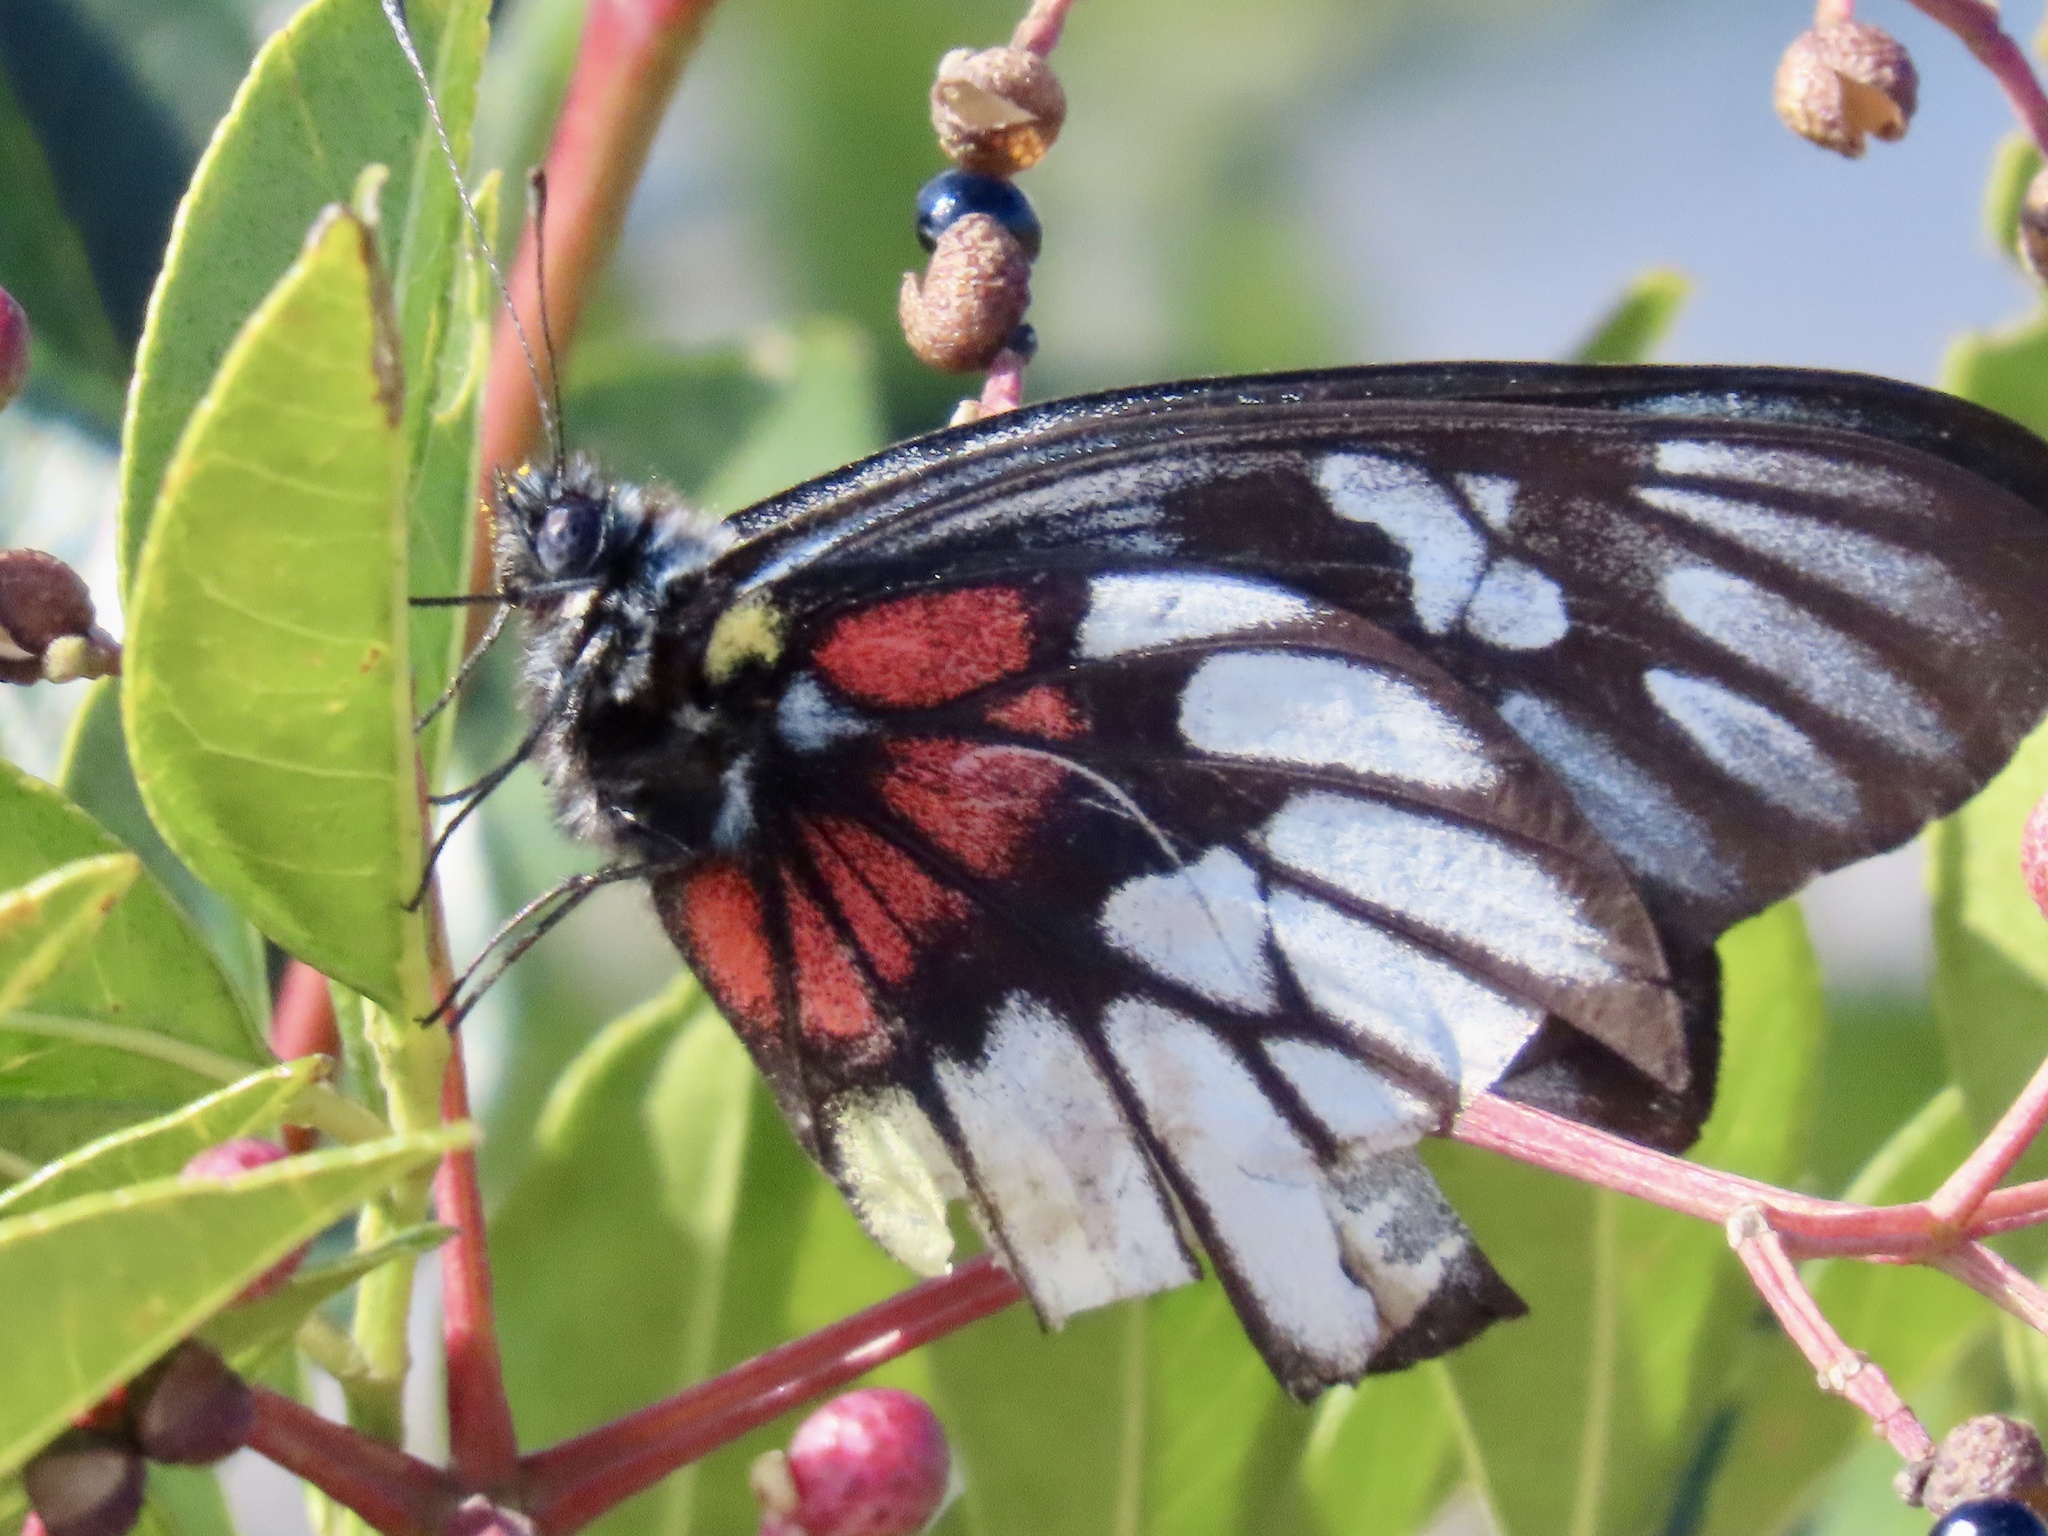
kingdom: Animalia
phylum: Arthropoda
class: Insecta
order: Lepidoptera
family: Pieridae
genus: Delias
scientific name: Delias acalis
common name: Red-breast jezebel
